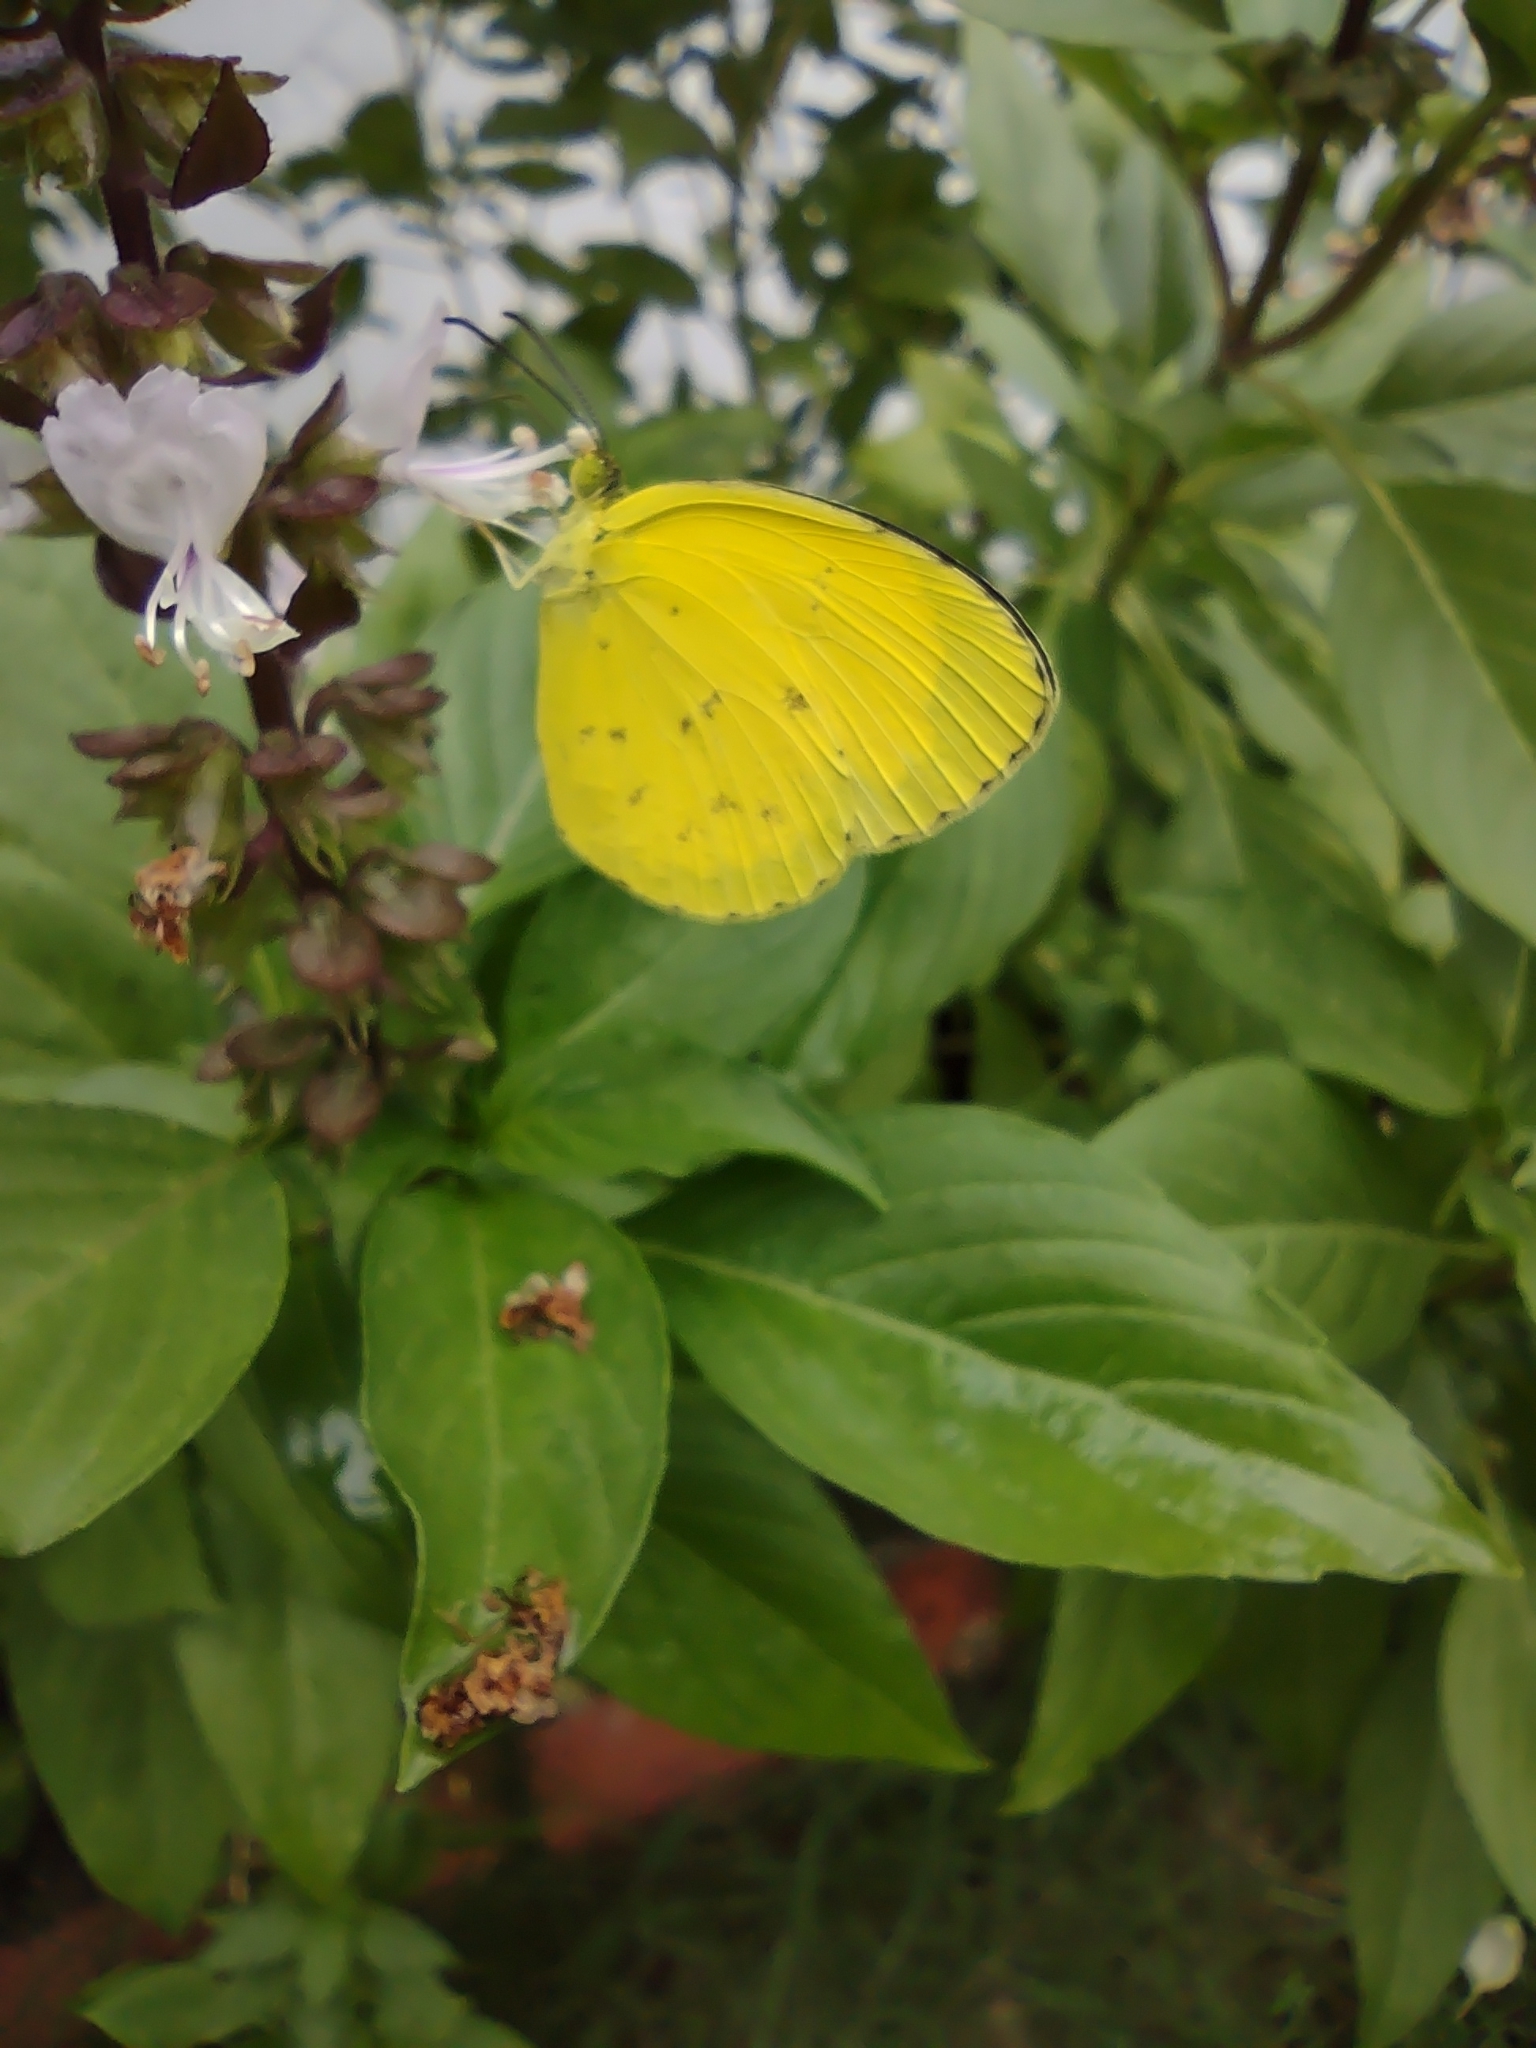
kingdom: Animalia
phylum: Arthropoda
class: Insecta
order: Lepidoptera
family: Pieridae
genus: Eurema
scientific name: Eurema hecabe
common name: Pale grass yellow
